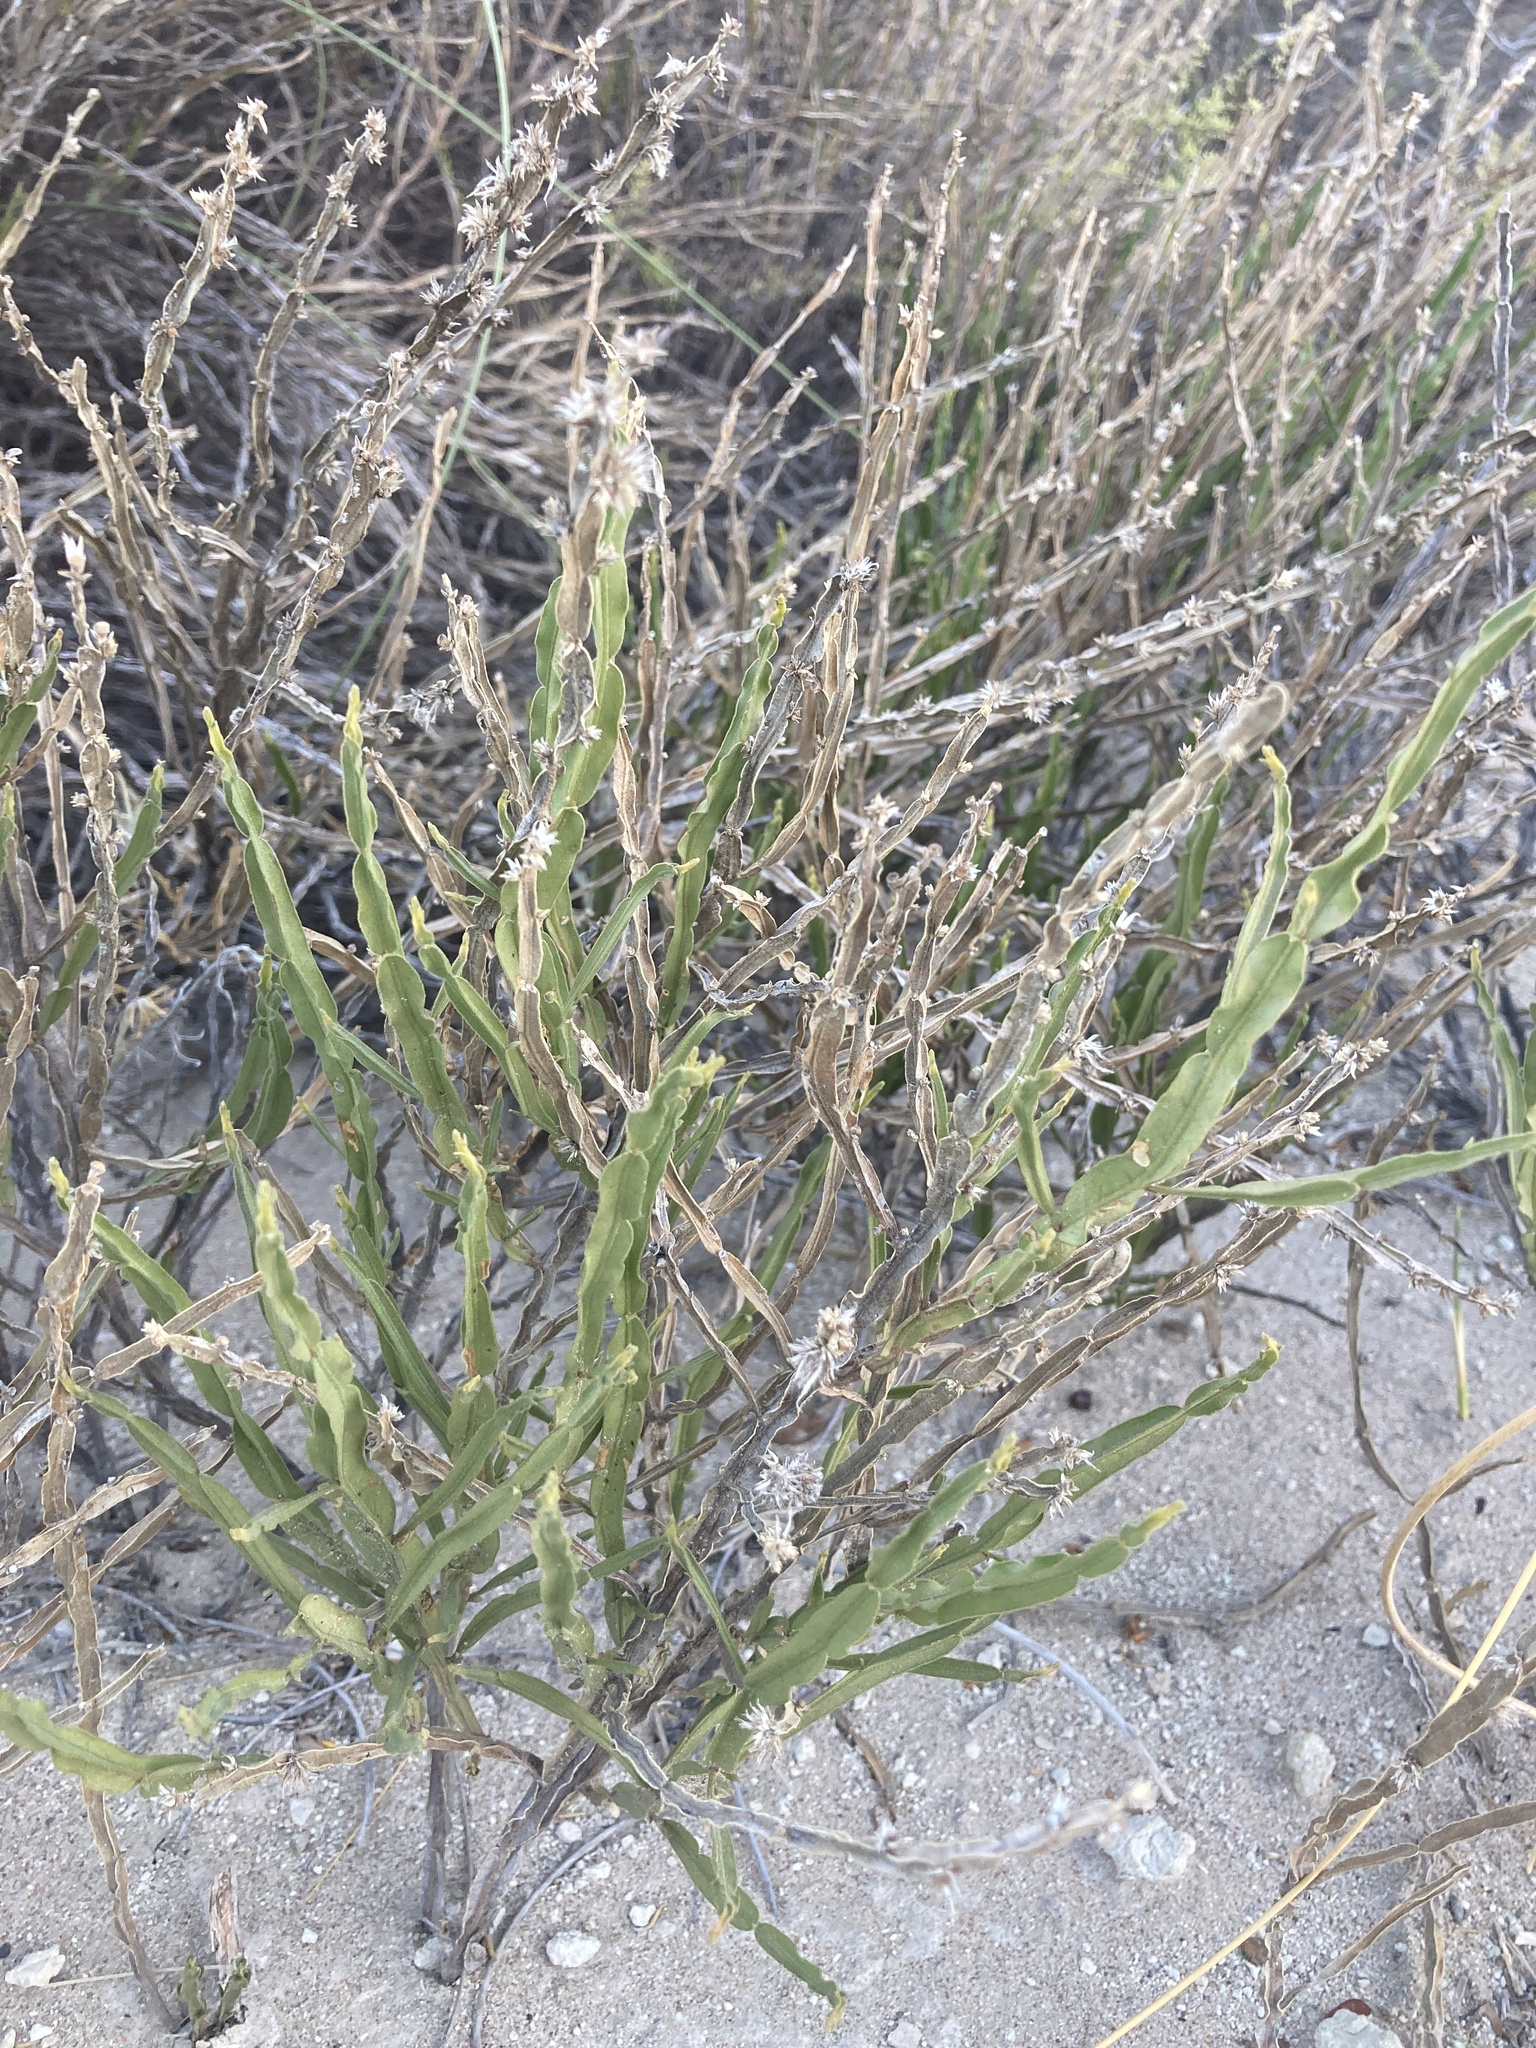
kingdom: Plantae
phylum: Tracheophyta
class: Magnoliopsida
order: Asterales
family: Asteraceae
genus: Baccharis
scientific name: Baccharis crispa
